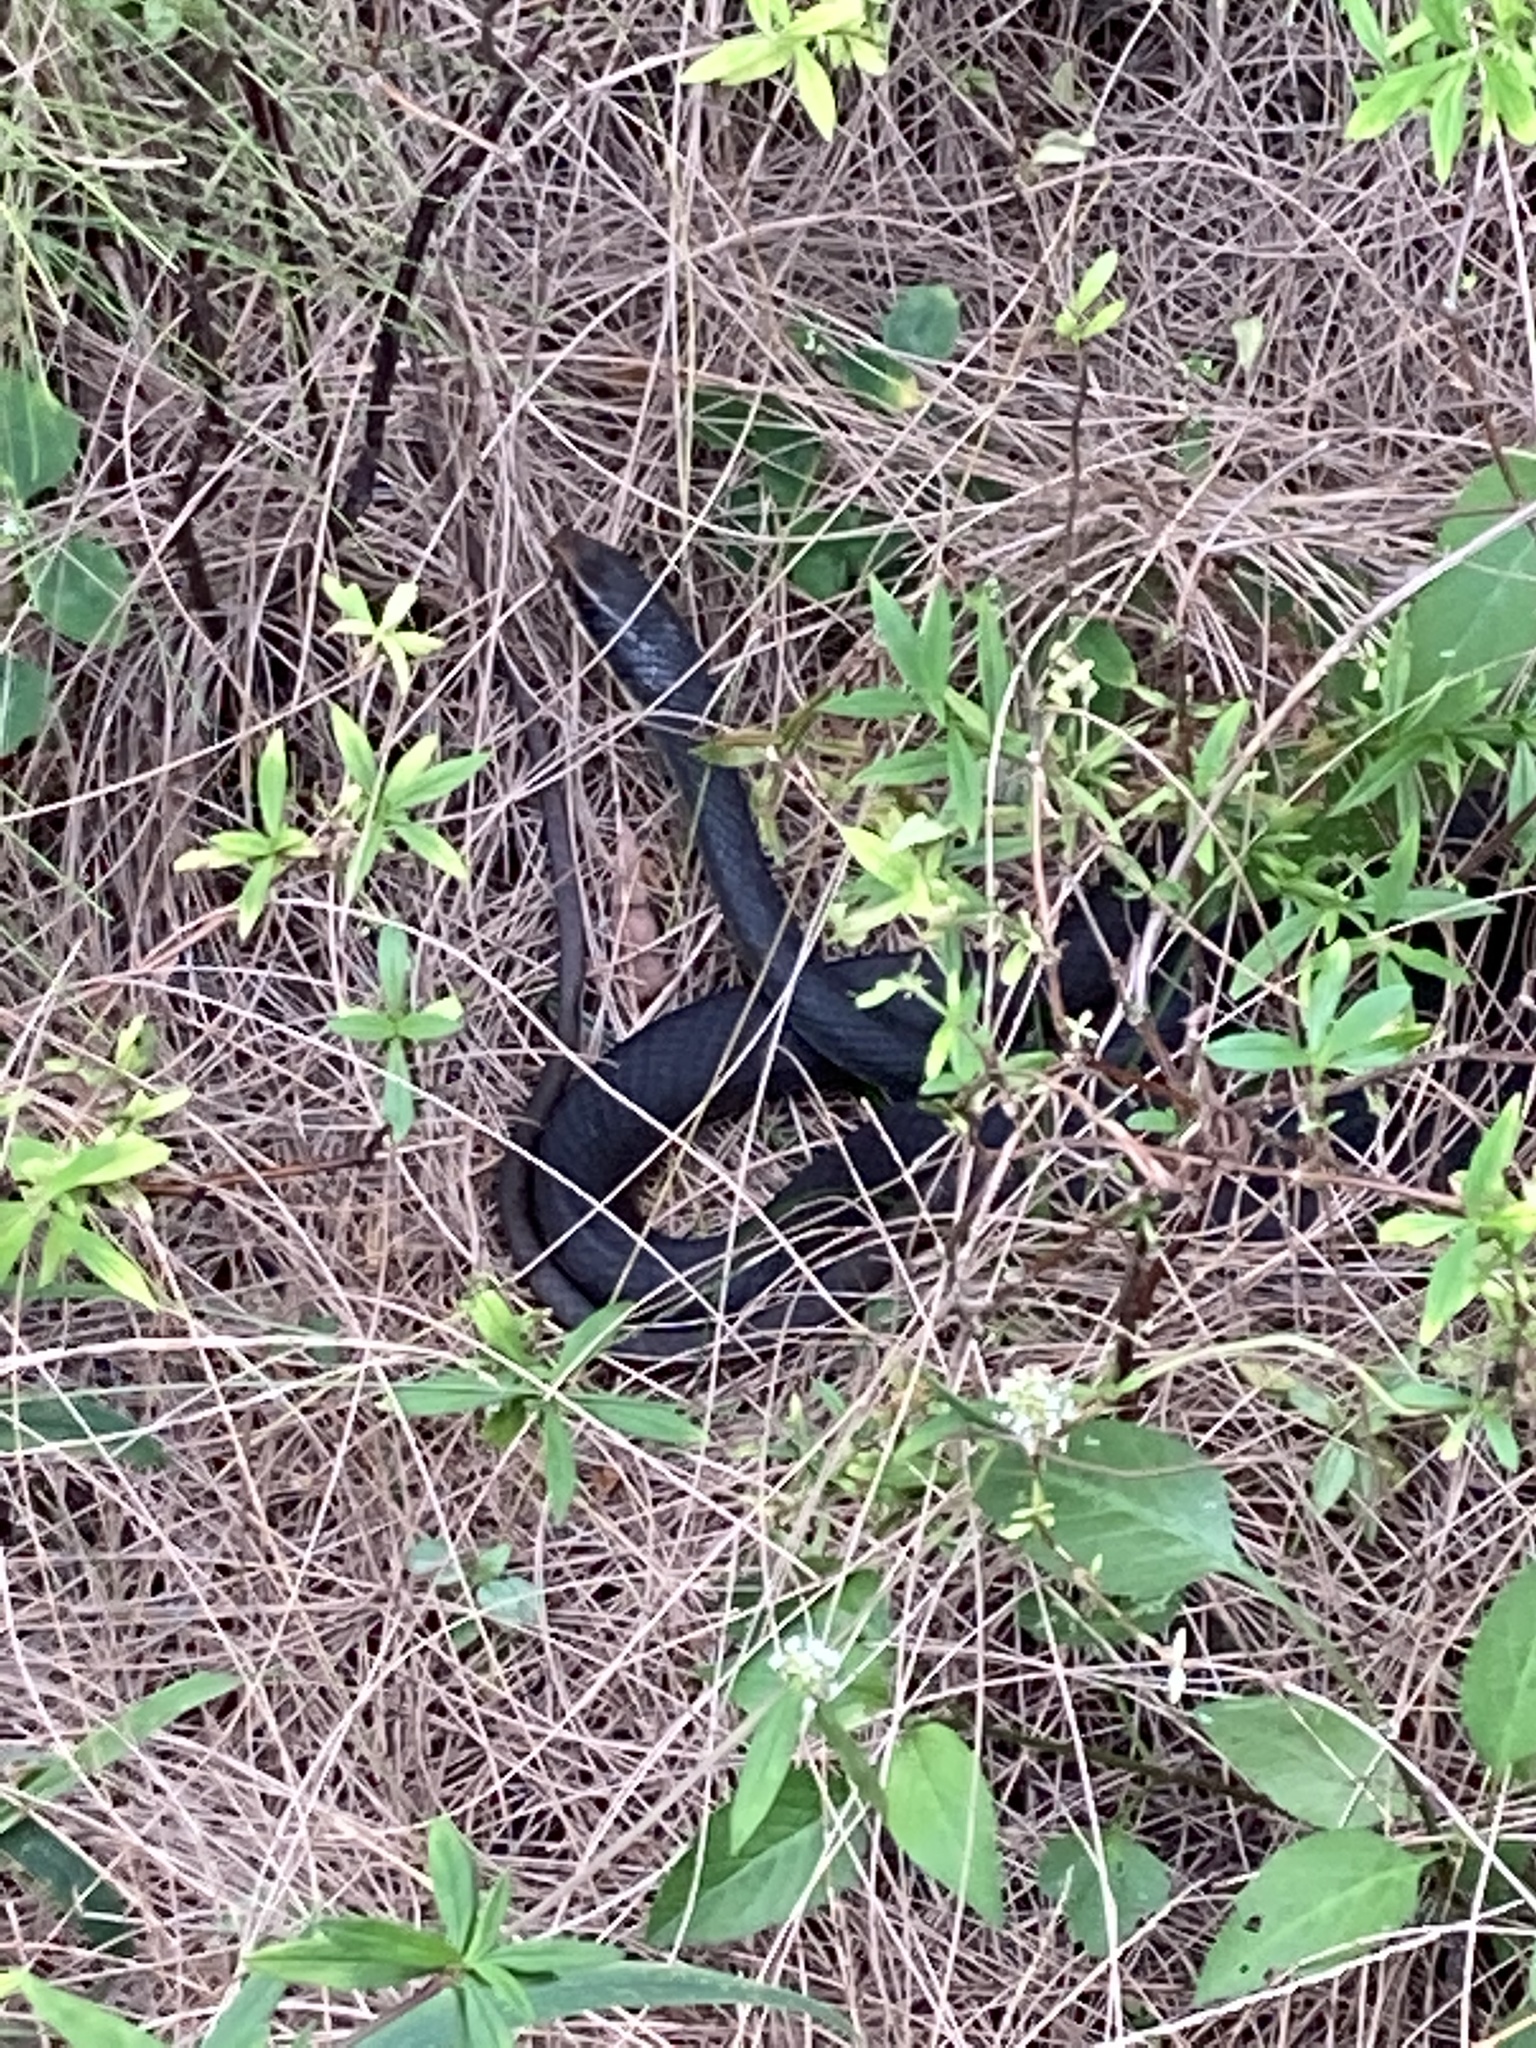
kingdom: Animalia
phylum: Chordata
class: Squamata
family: Colubridae
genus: Coluber
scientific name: Coluber constrictor
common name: Eastern racer
